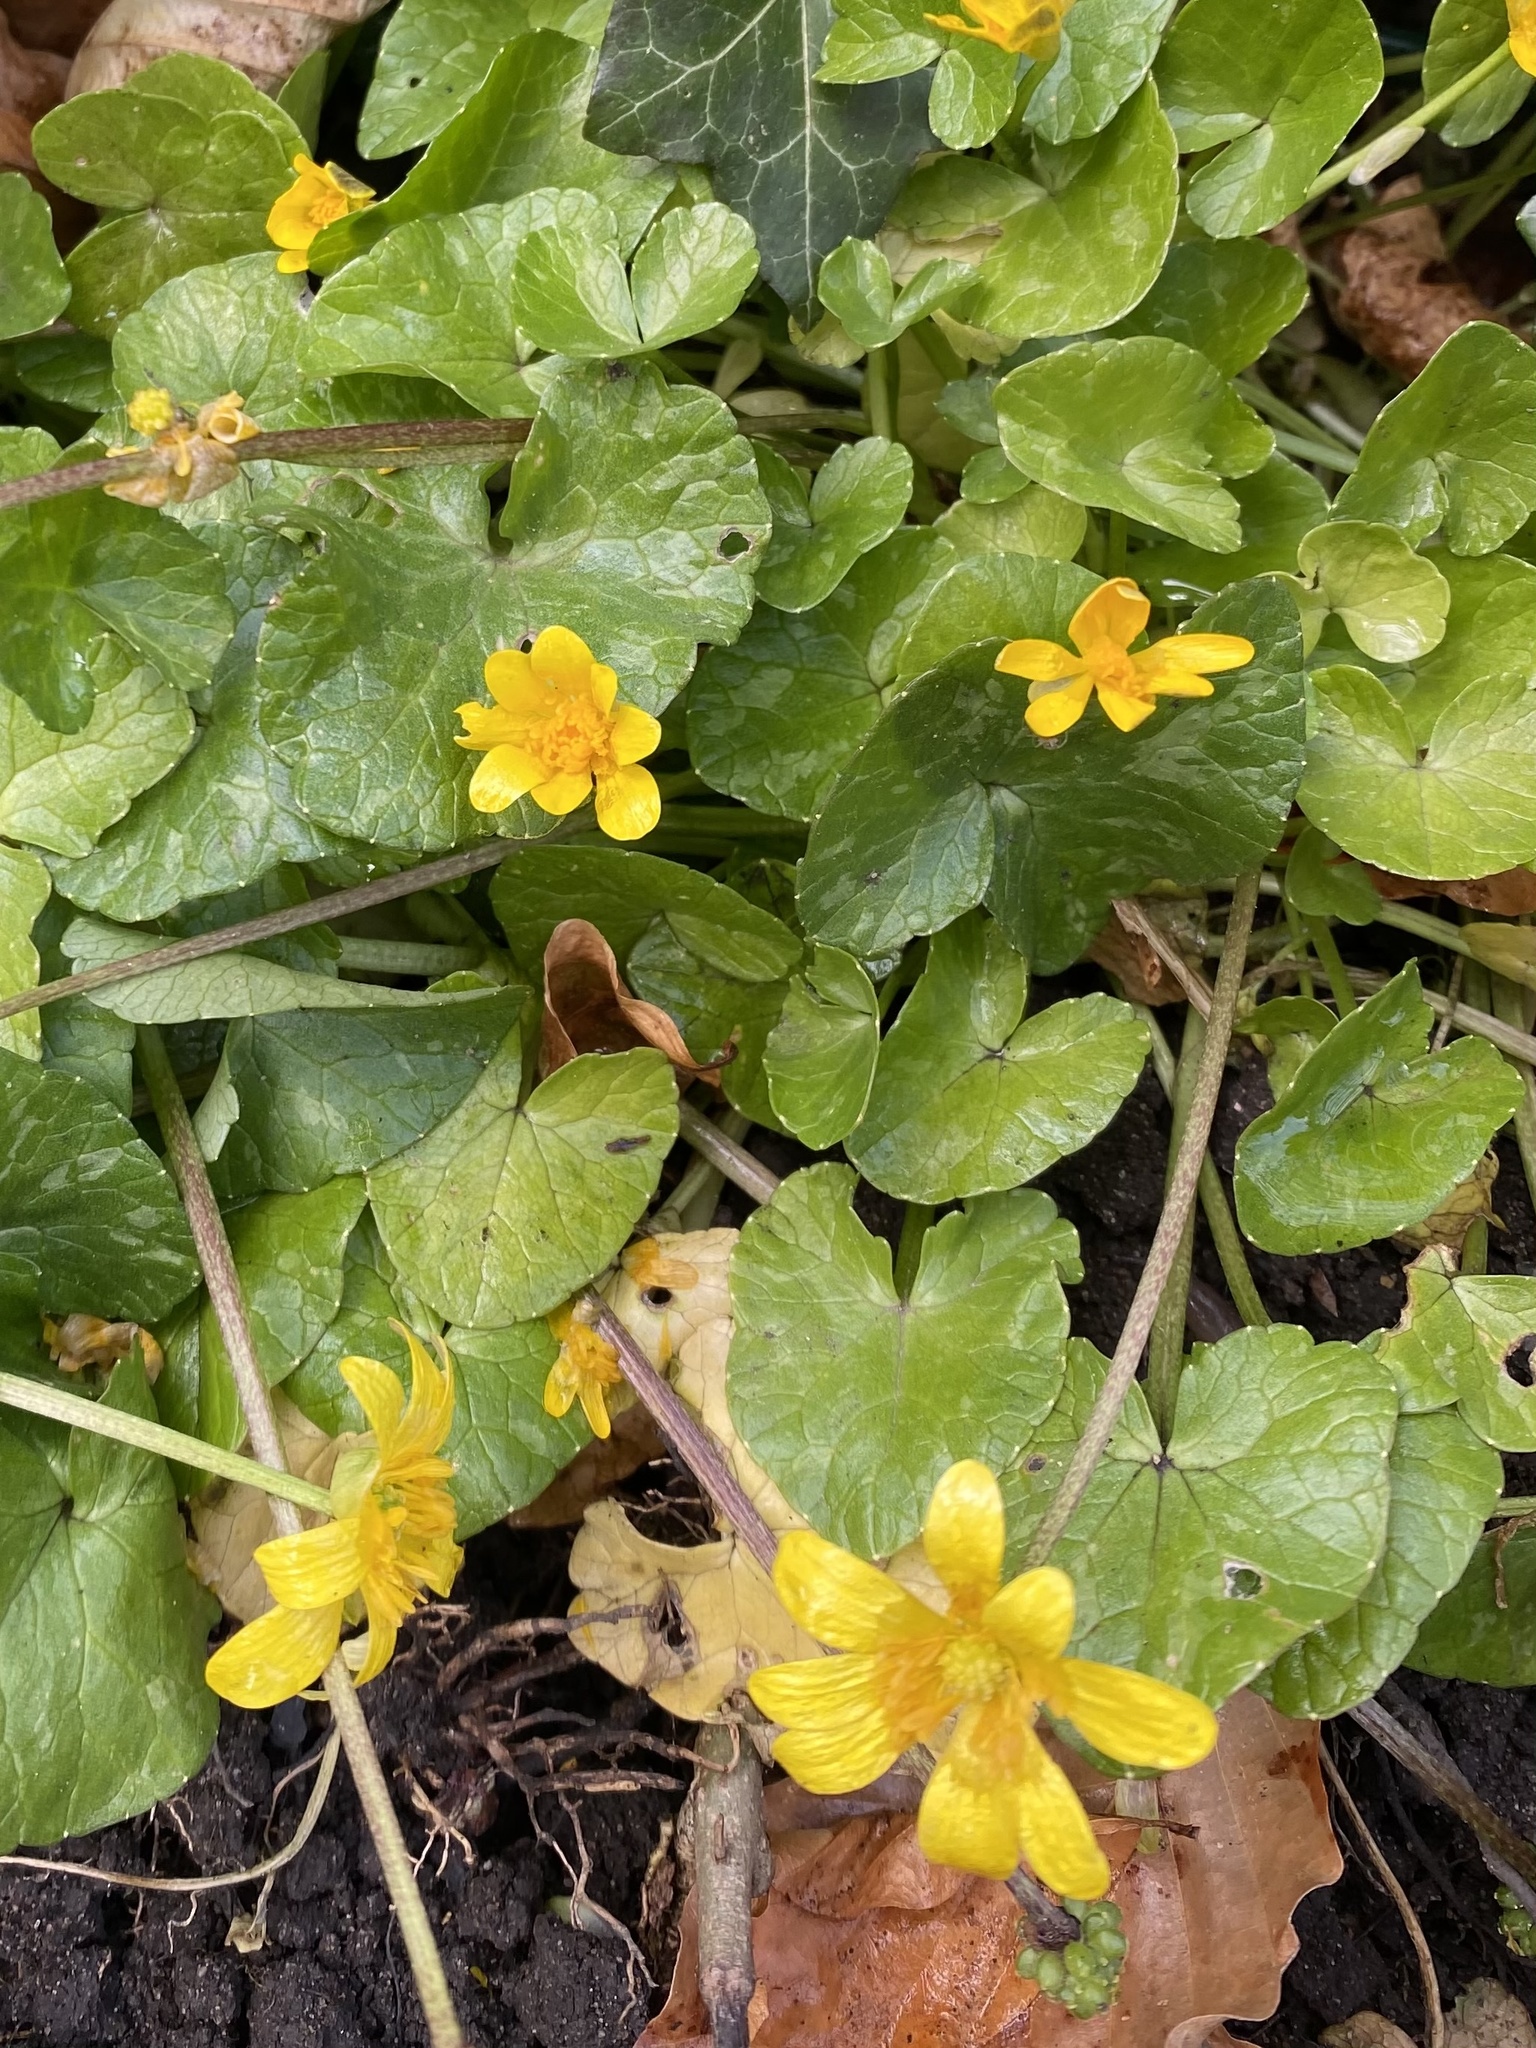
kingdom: Plantae
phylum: Tracheophyta
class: Magnoliopsida
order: Ranunculales
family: Ranunculaceae
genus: Ficaria
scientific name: Ficaria verna
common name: Lesser celandine
